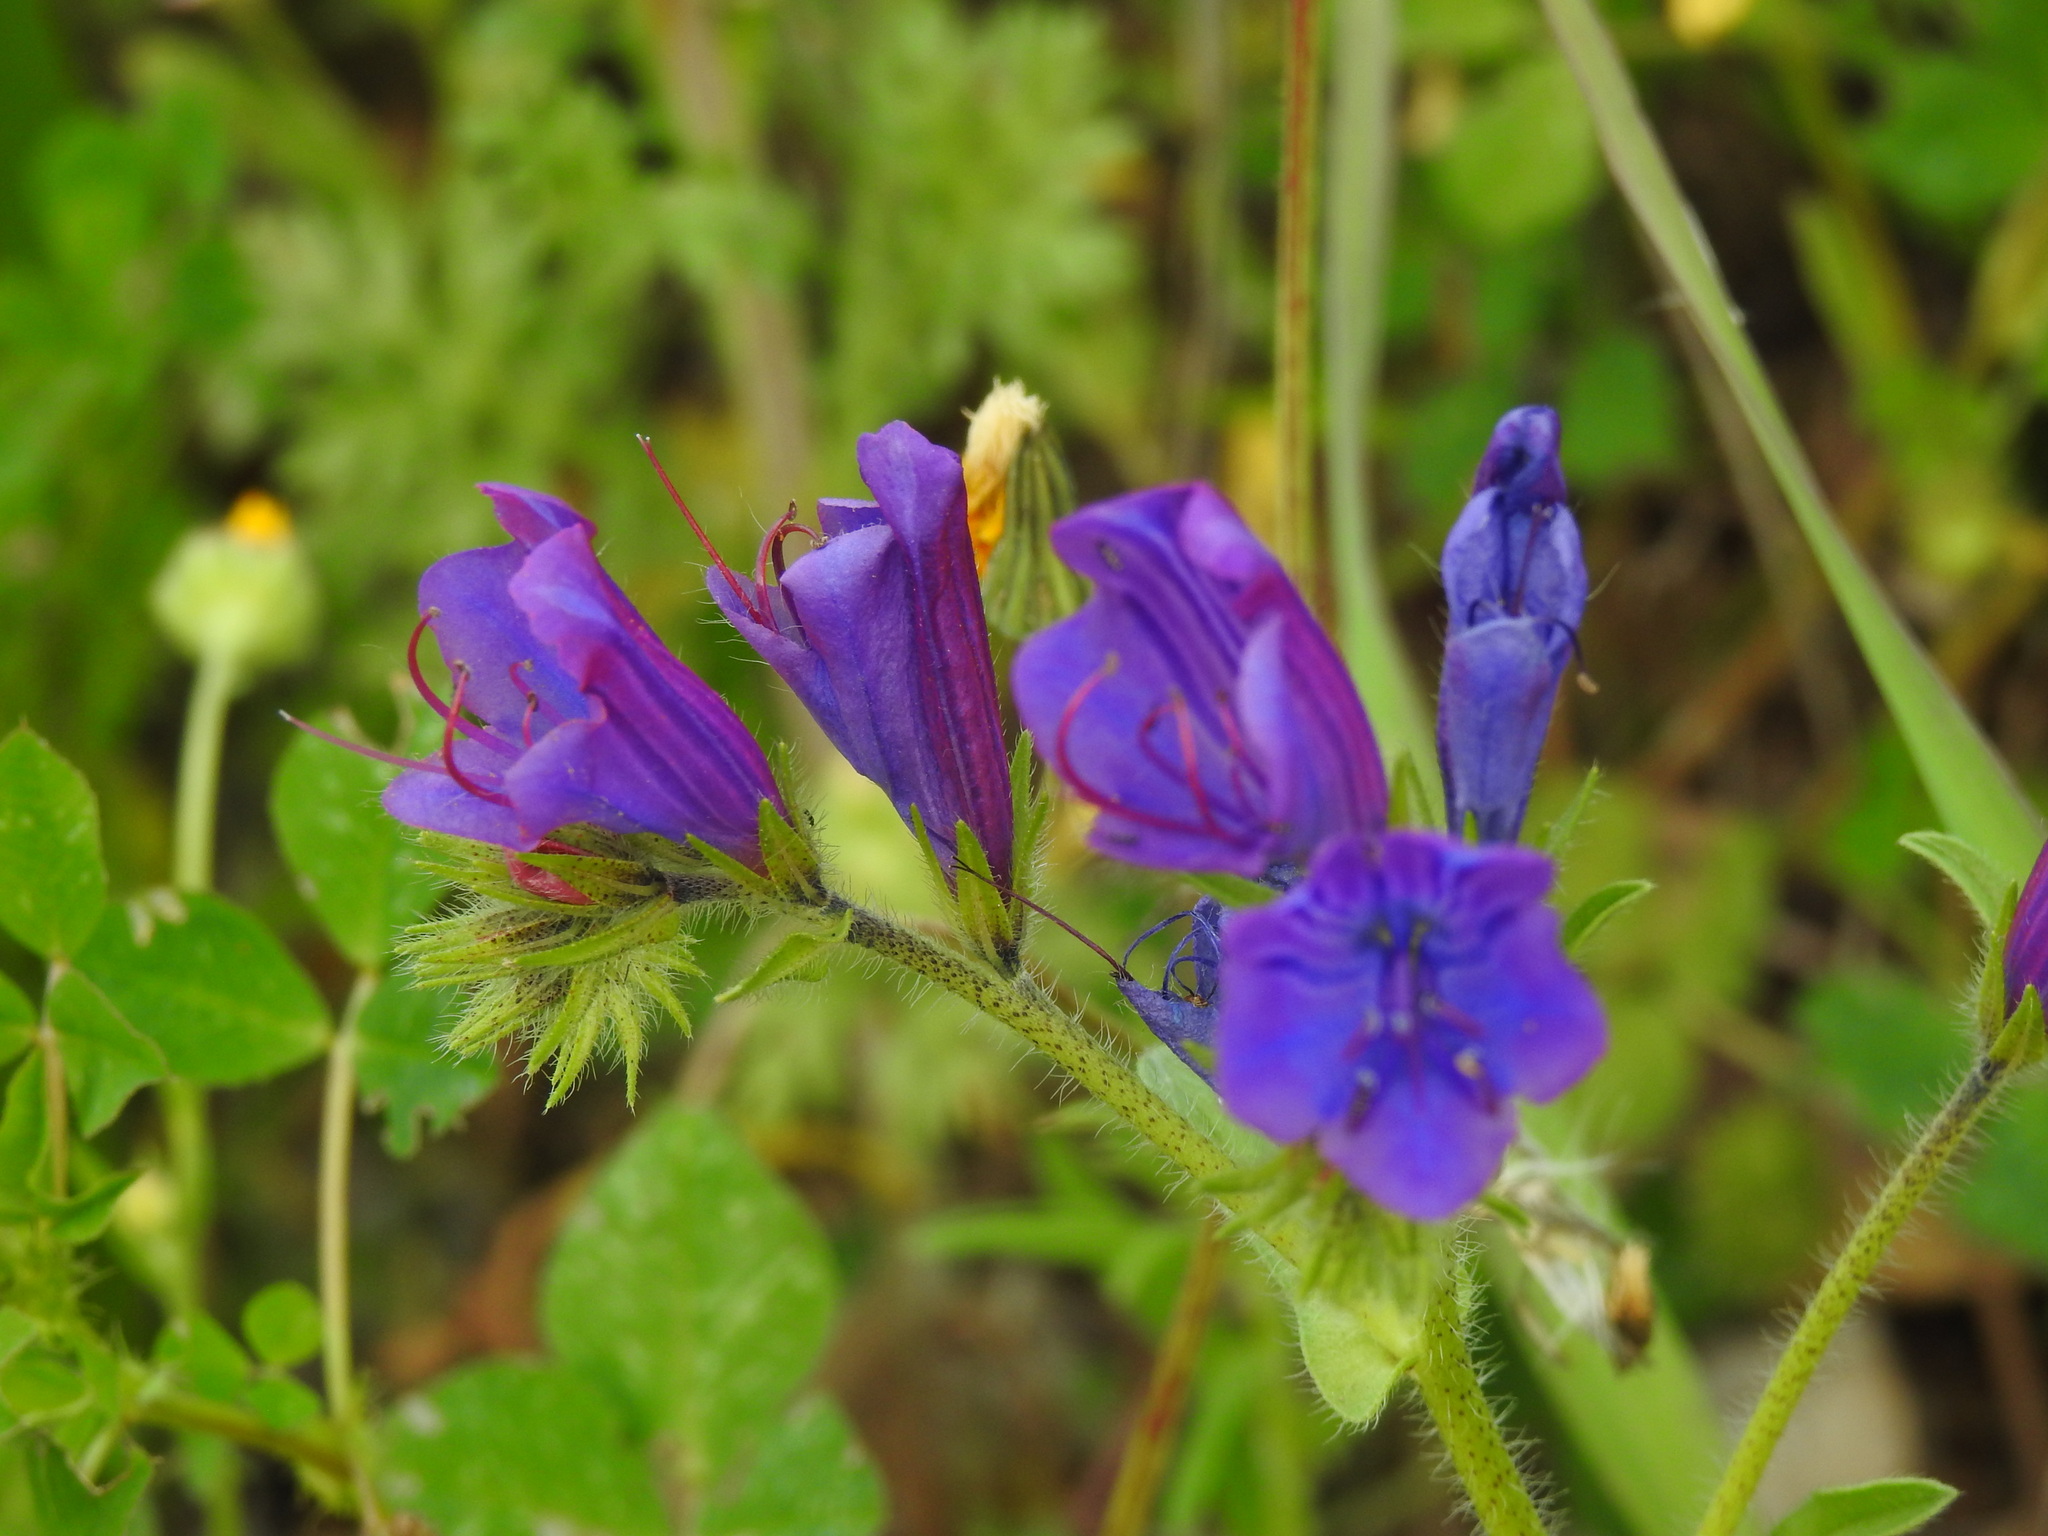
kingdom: Plantae
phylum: Tracheophyta
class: Magnoliopsida
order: Boraginales
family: Boraginaceae
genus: Echium
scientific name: Echium plantagineum
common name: Purple viper's-bugloss
